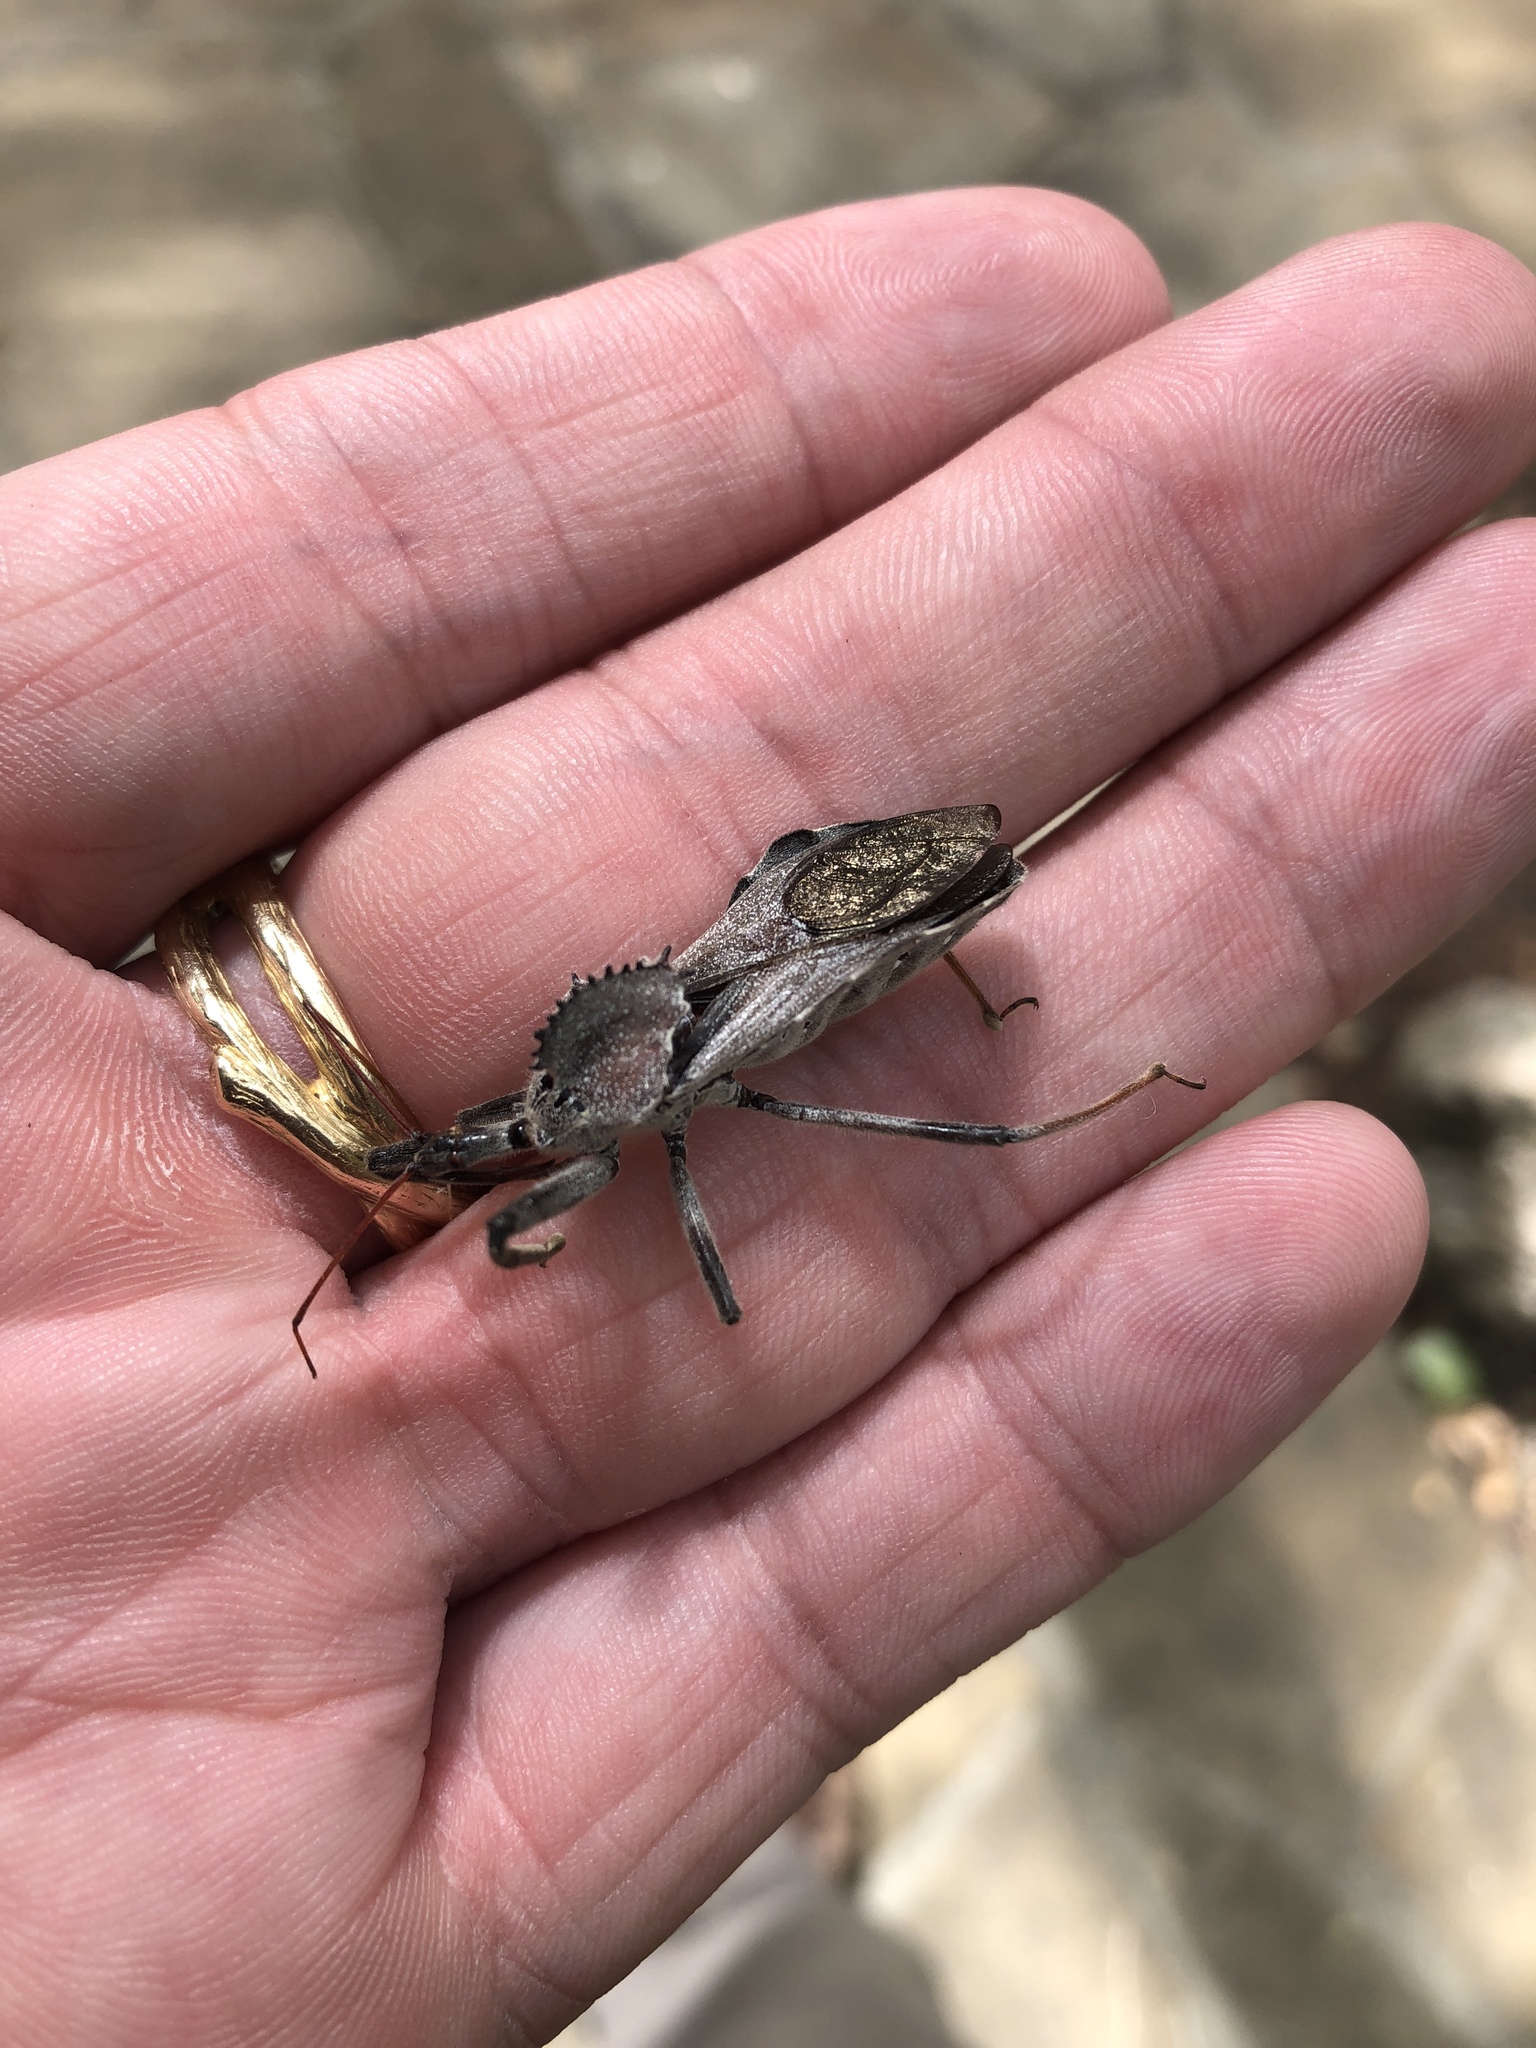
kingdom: Animalia
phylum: Arthropoda
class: Insecta
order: Hemiptera
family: Reduviidae
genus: Arilus
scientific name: Arilus cristatus
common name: North american wheel bug
